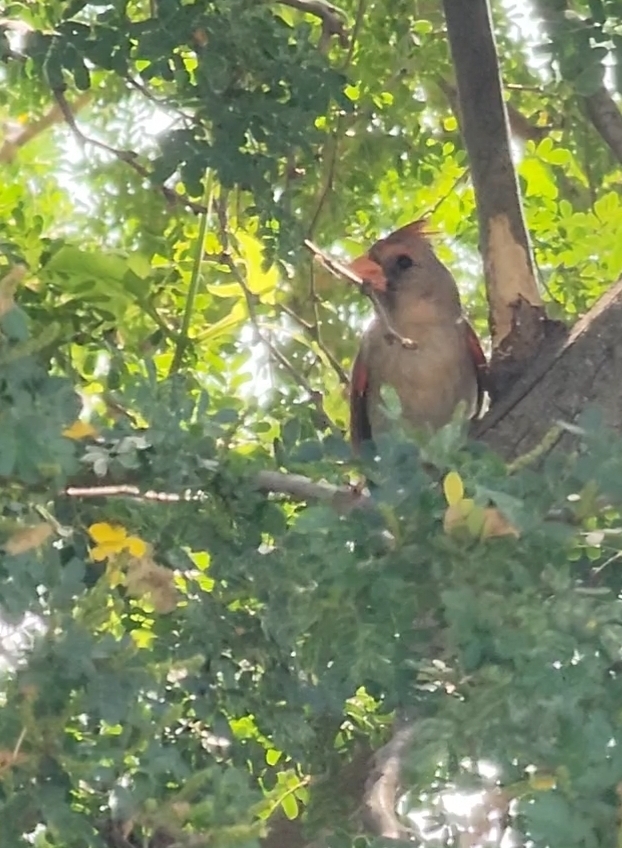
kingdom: Animalia
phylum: Chordata
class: Aves
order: Passeriformes
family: Cardinalidae
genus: Cardinalis
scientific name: Cardinalis cardinalis
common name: Northern cardinal
